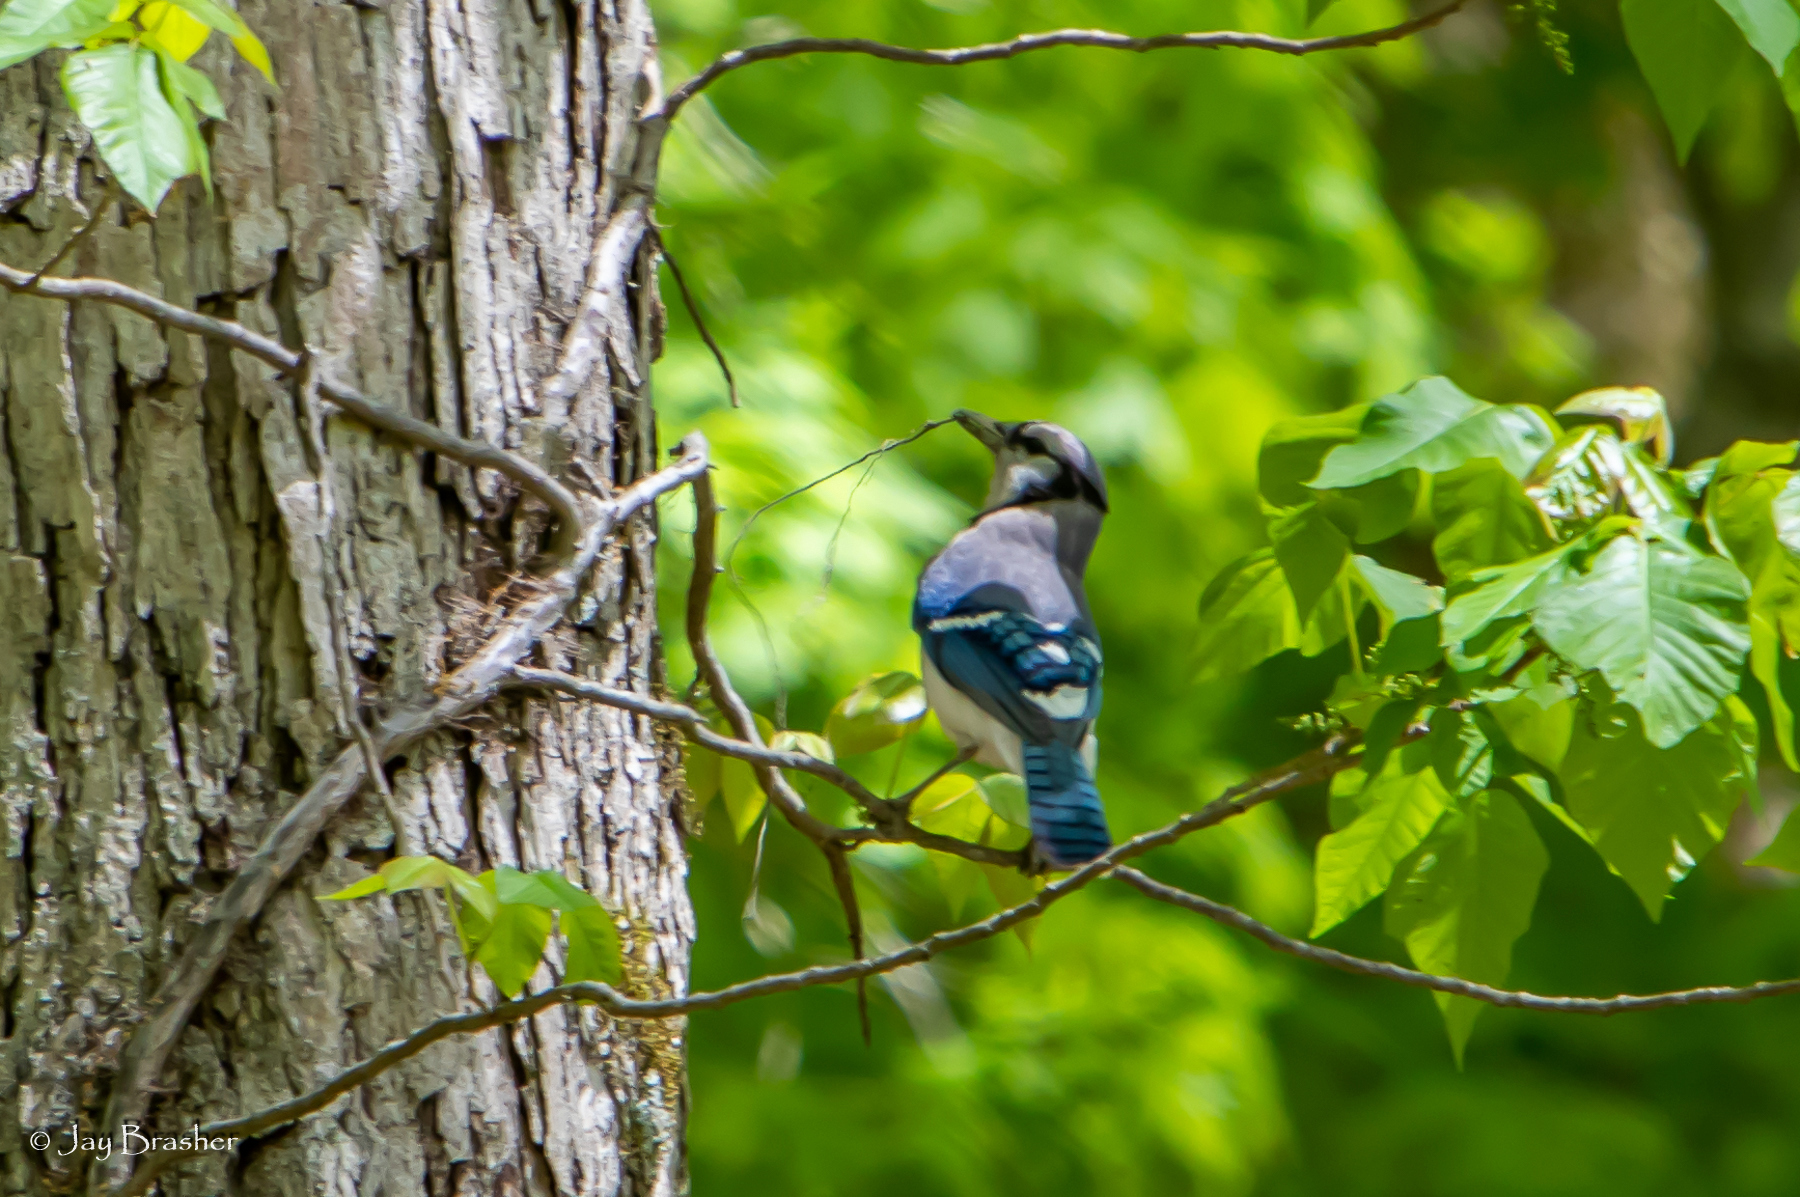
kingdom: Animalia
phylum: Chordata
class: Aves
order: Passeriformes
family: Corvidae
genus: Cyanocitta
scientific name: Cyanocitta cristata
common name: Blue jay
